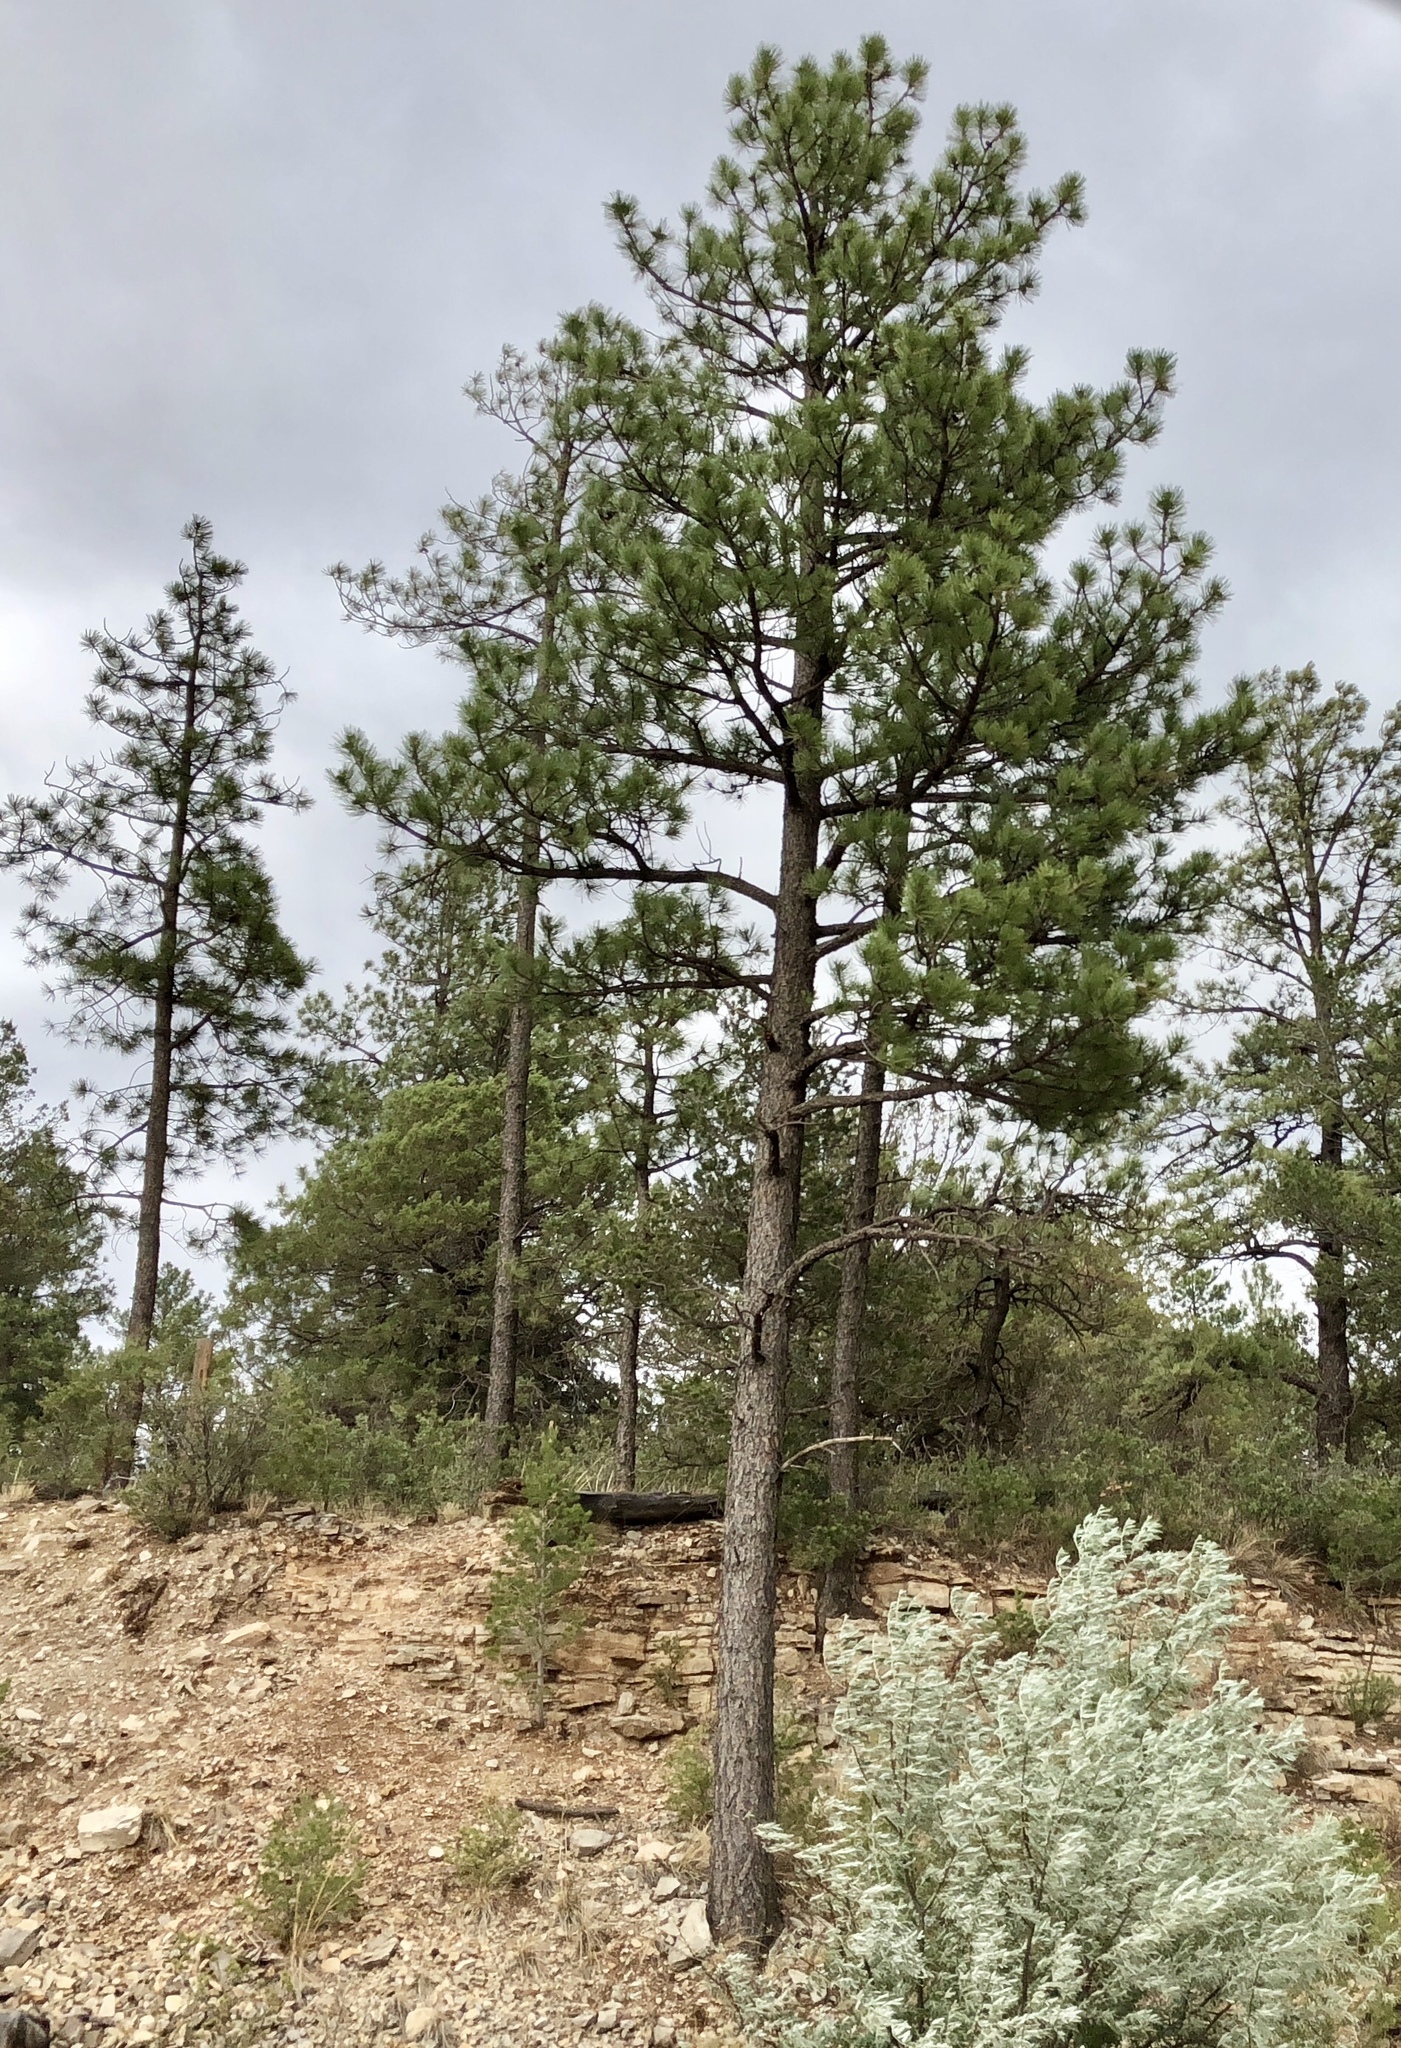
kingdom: Plantae
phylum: Tracheophyta
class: Pinopsida
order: Pinales
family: Pinaceae
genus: Pinus
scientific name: Pinus ponderosa
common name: Western yellow-pine
